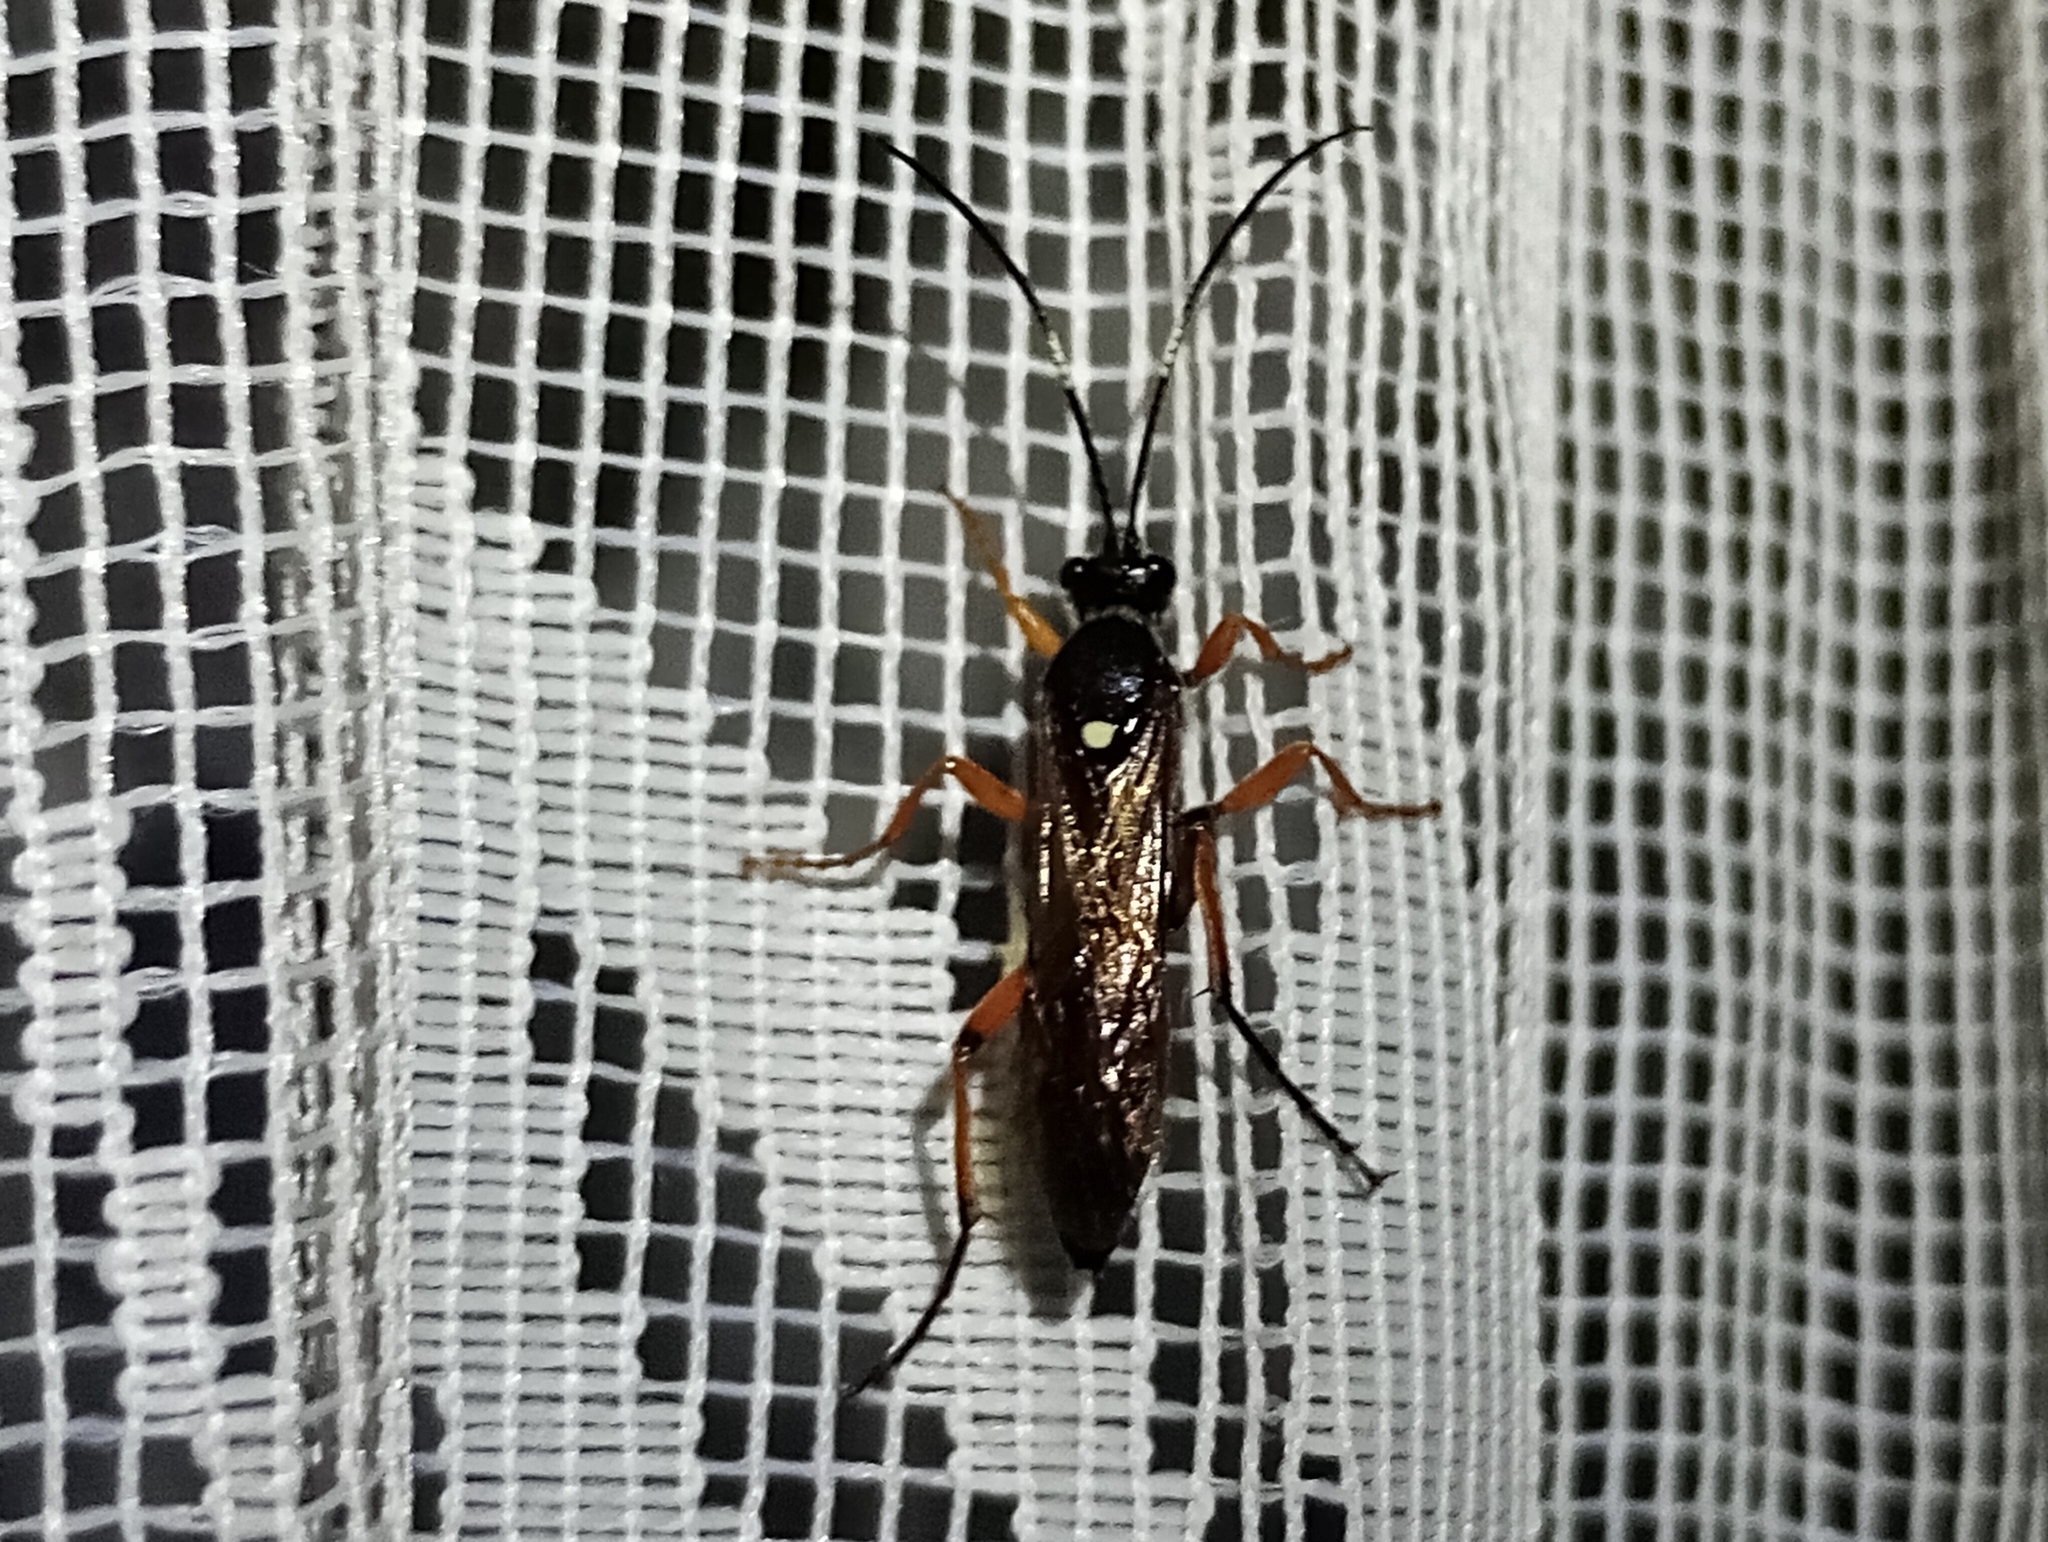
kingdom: Animalia
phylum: Arthropoda
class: Insecta
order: Hymenoptera
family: Ichneumonidae
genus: Diphyus
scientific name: Diphyus quadripunctorius
